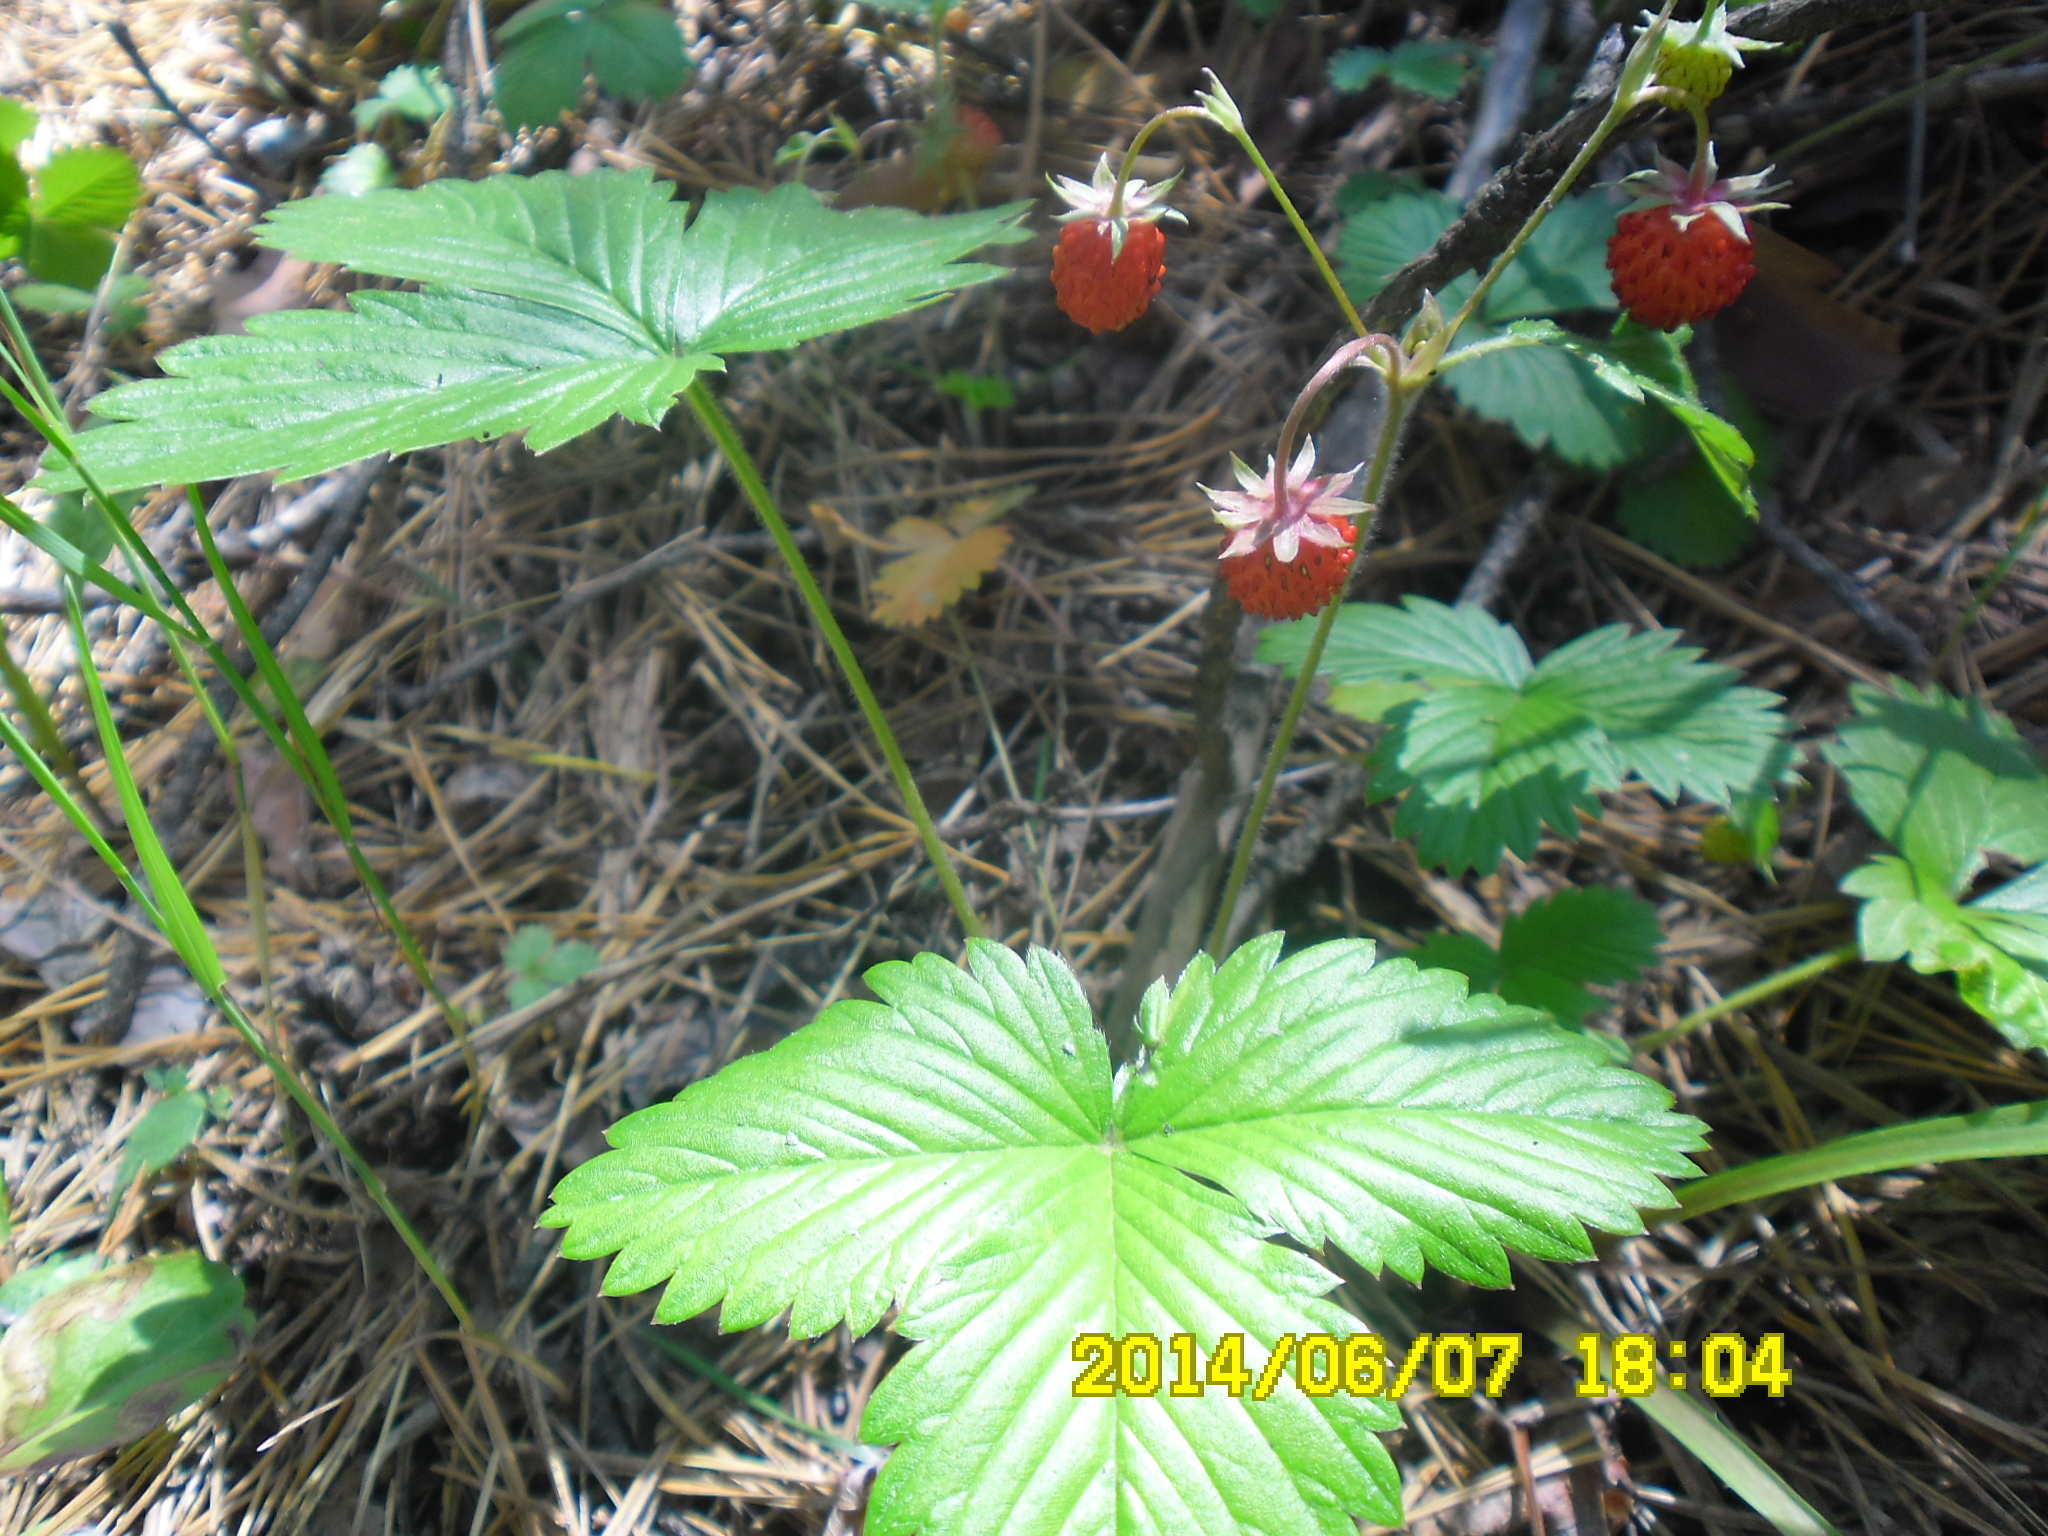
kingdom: Plantae
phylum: Tracheophyta
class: Magnoliopsida
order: Rosales
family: Rosaceae
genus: Fragaria
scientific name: Fragaria vesca
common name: Wild strawberry
